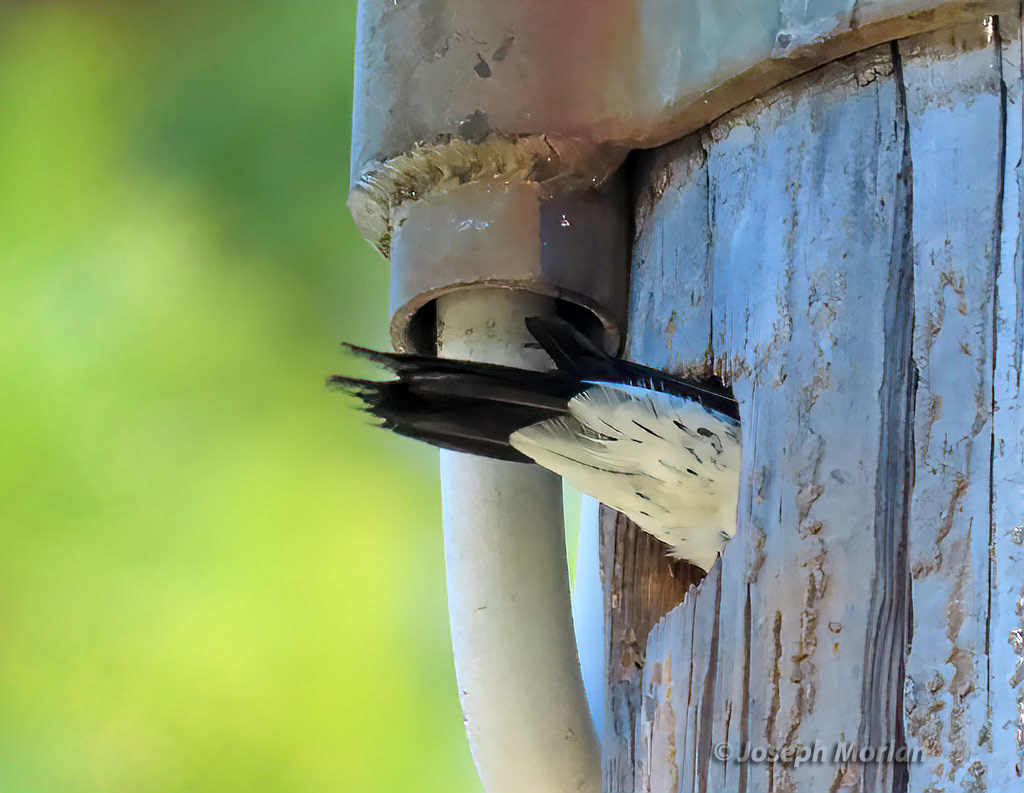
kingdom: Animalia
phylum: Chordata
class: Aves
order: Piciformes
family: Picidae
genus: Melanerpes
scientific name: Melanerpes formicivorus
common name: Acorn woodpecker
